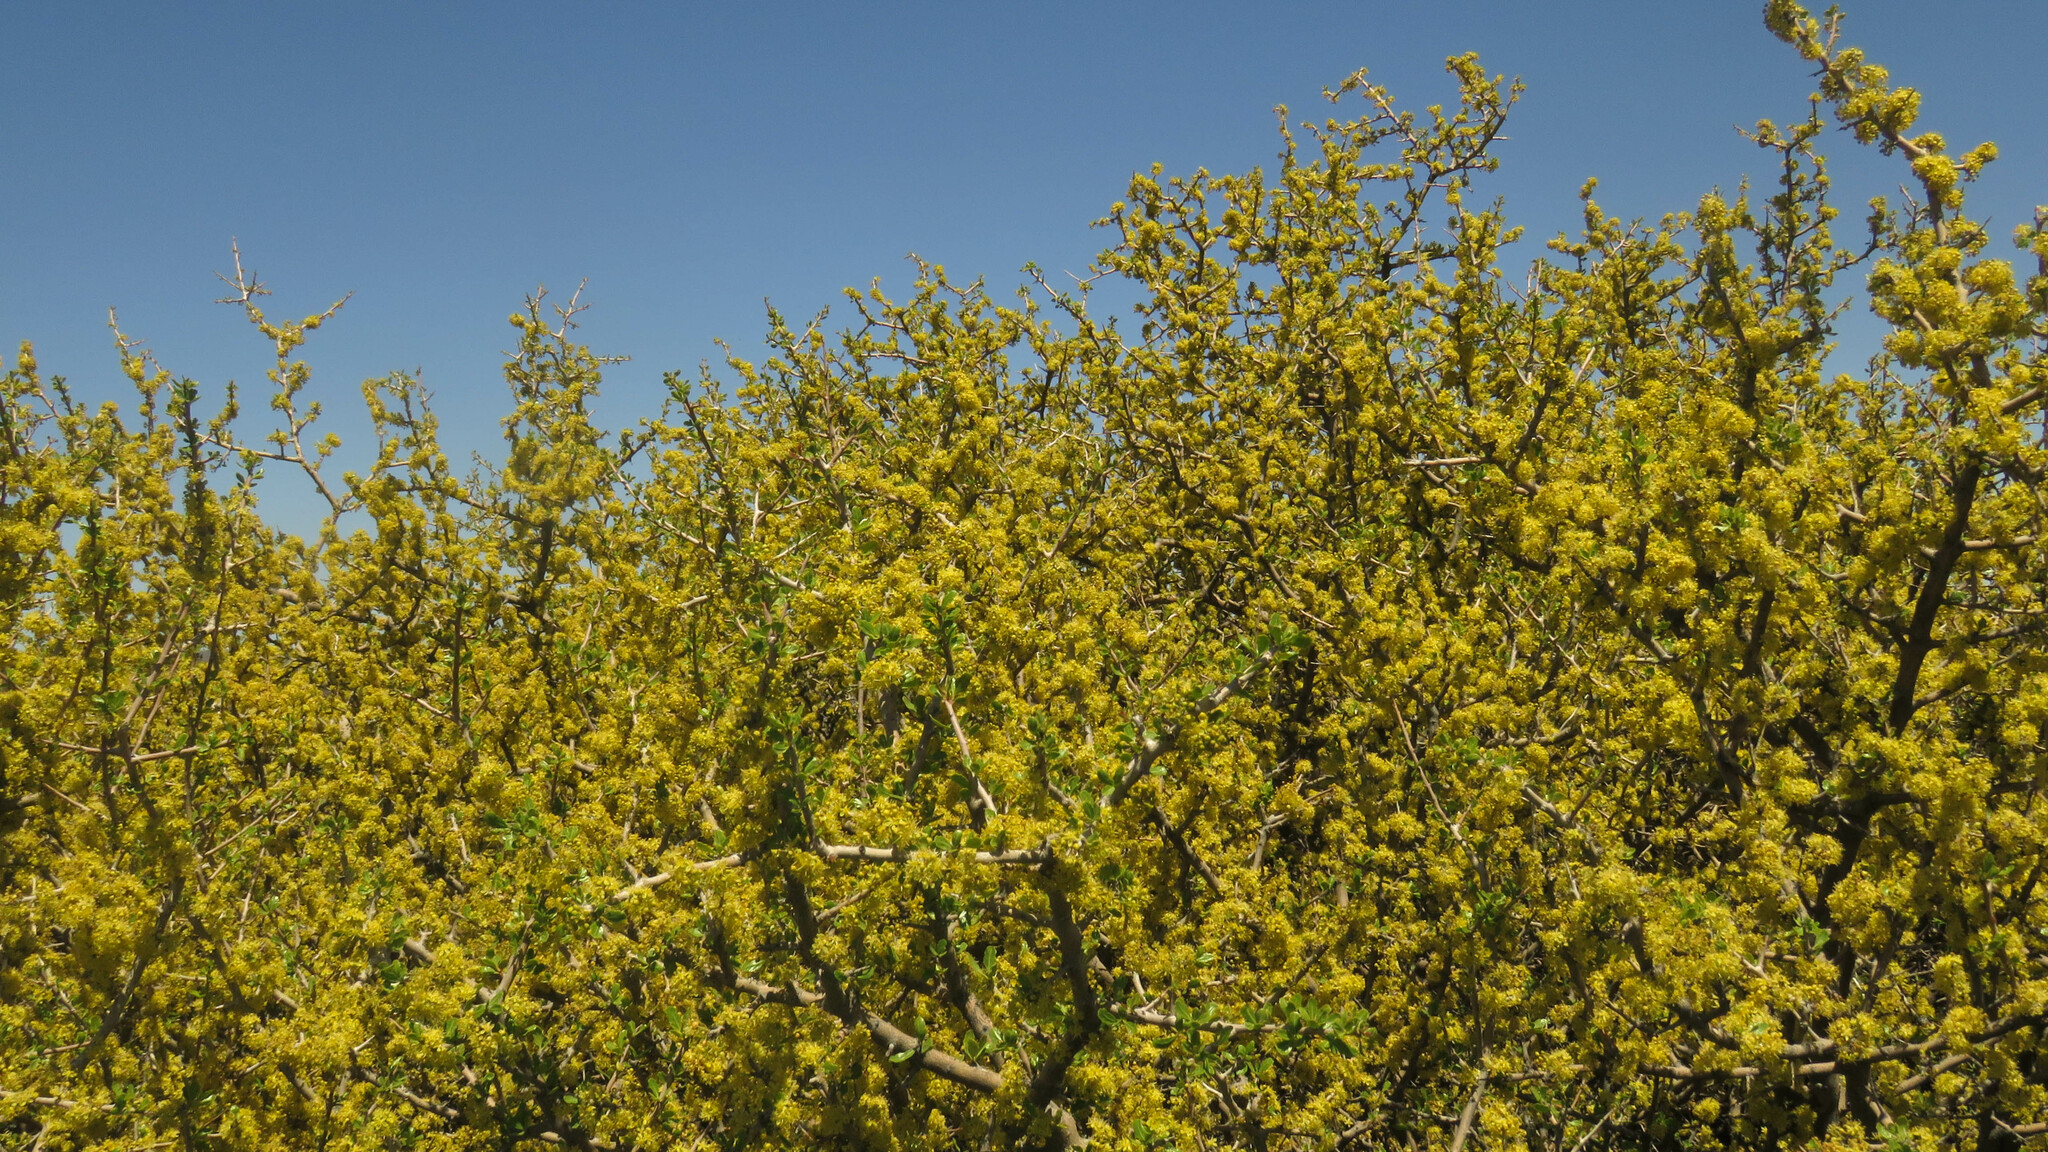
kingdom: Plantae
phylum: Tracheophyta
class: Magnoliopsida
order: Sapindales
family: Anacardiaceae
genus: Schinus
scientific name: Schinus johnstonii
